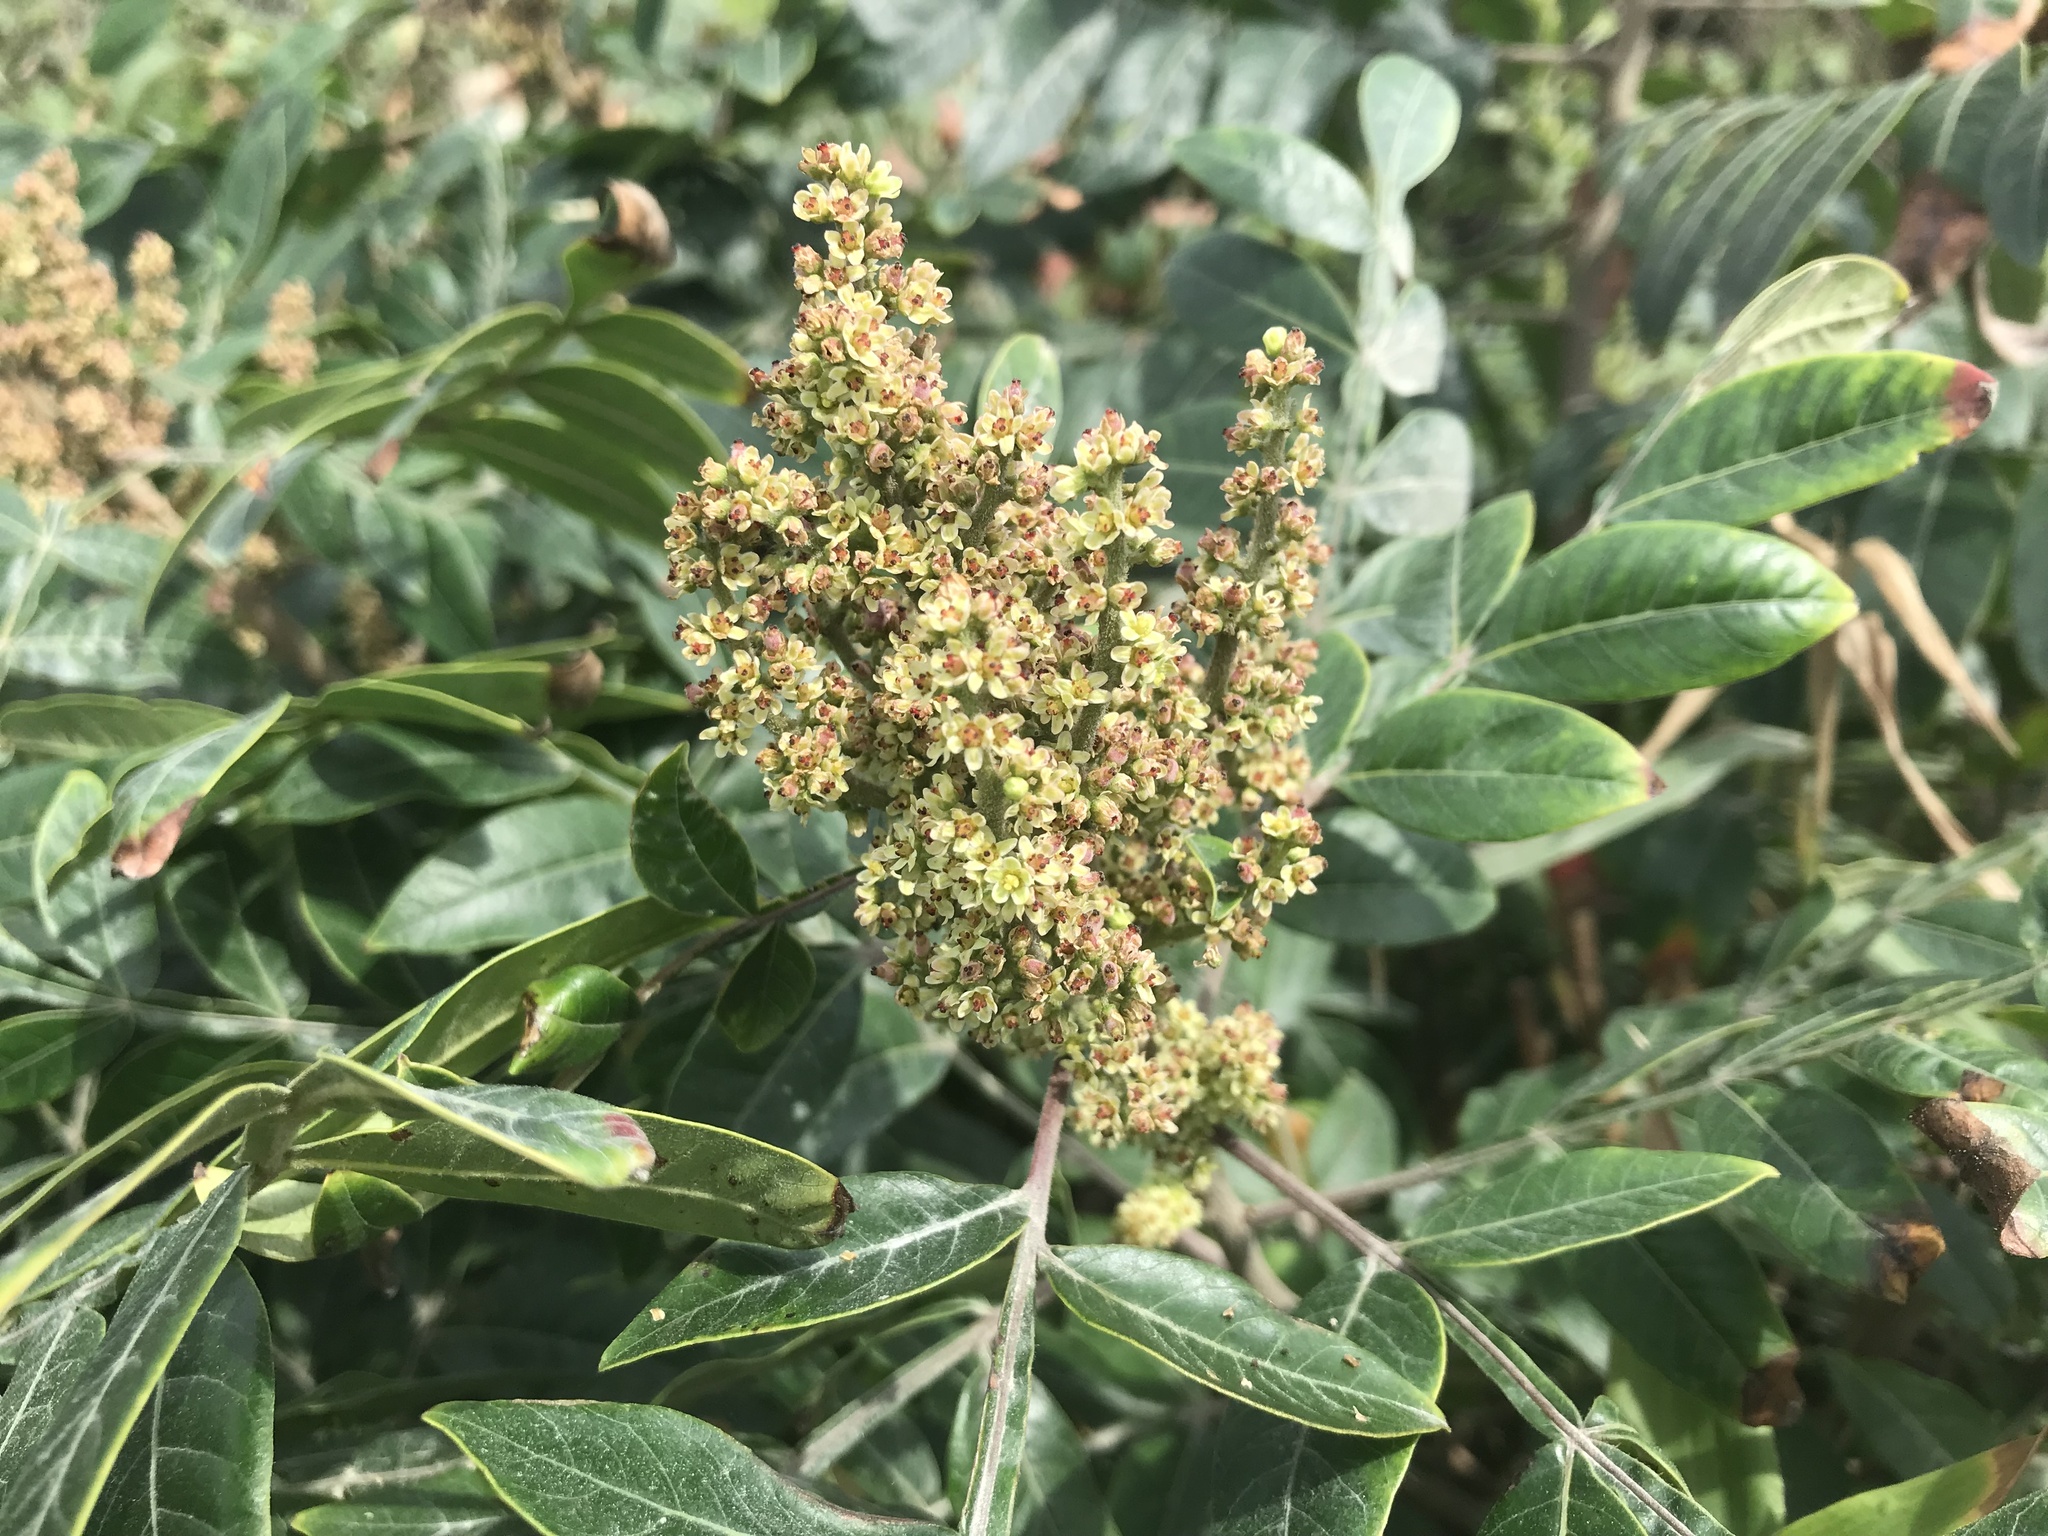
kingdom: Plantae
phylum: Tracheophyta
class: Magnoliopsida
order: Sapindales
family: Anacardiaceae
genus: Rhus
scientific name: Rhus copallina
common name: Shining sumac
